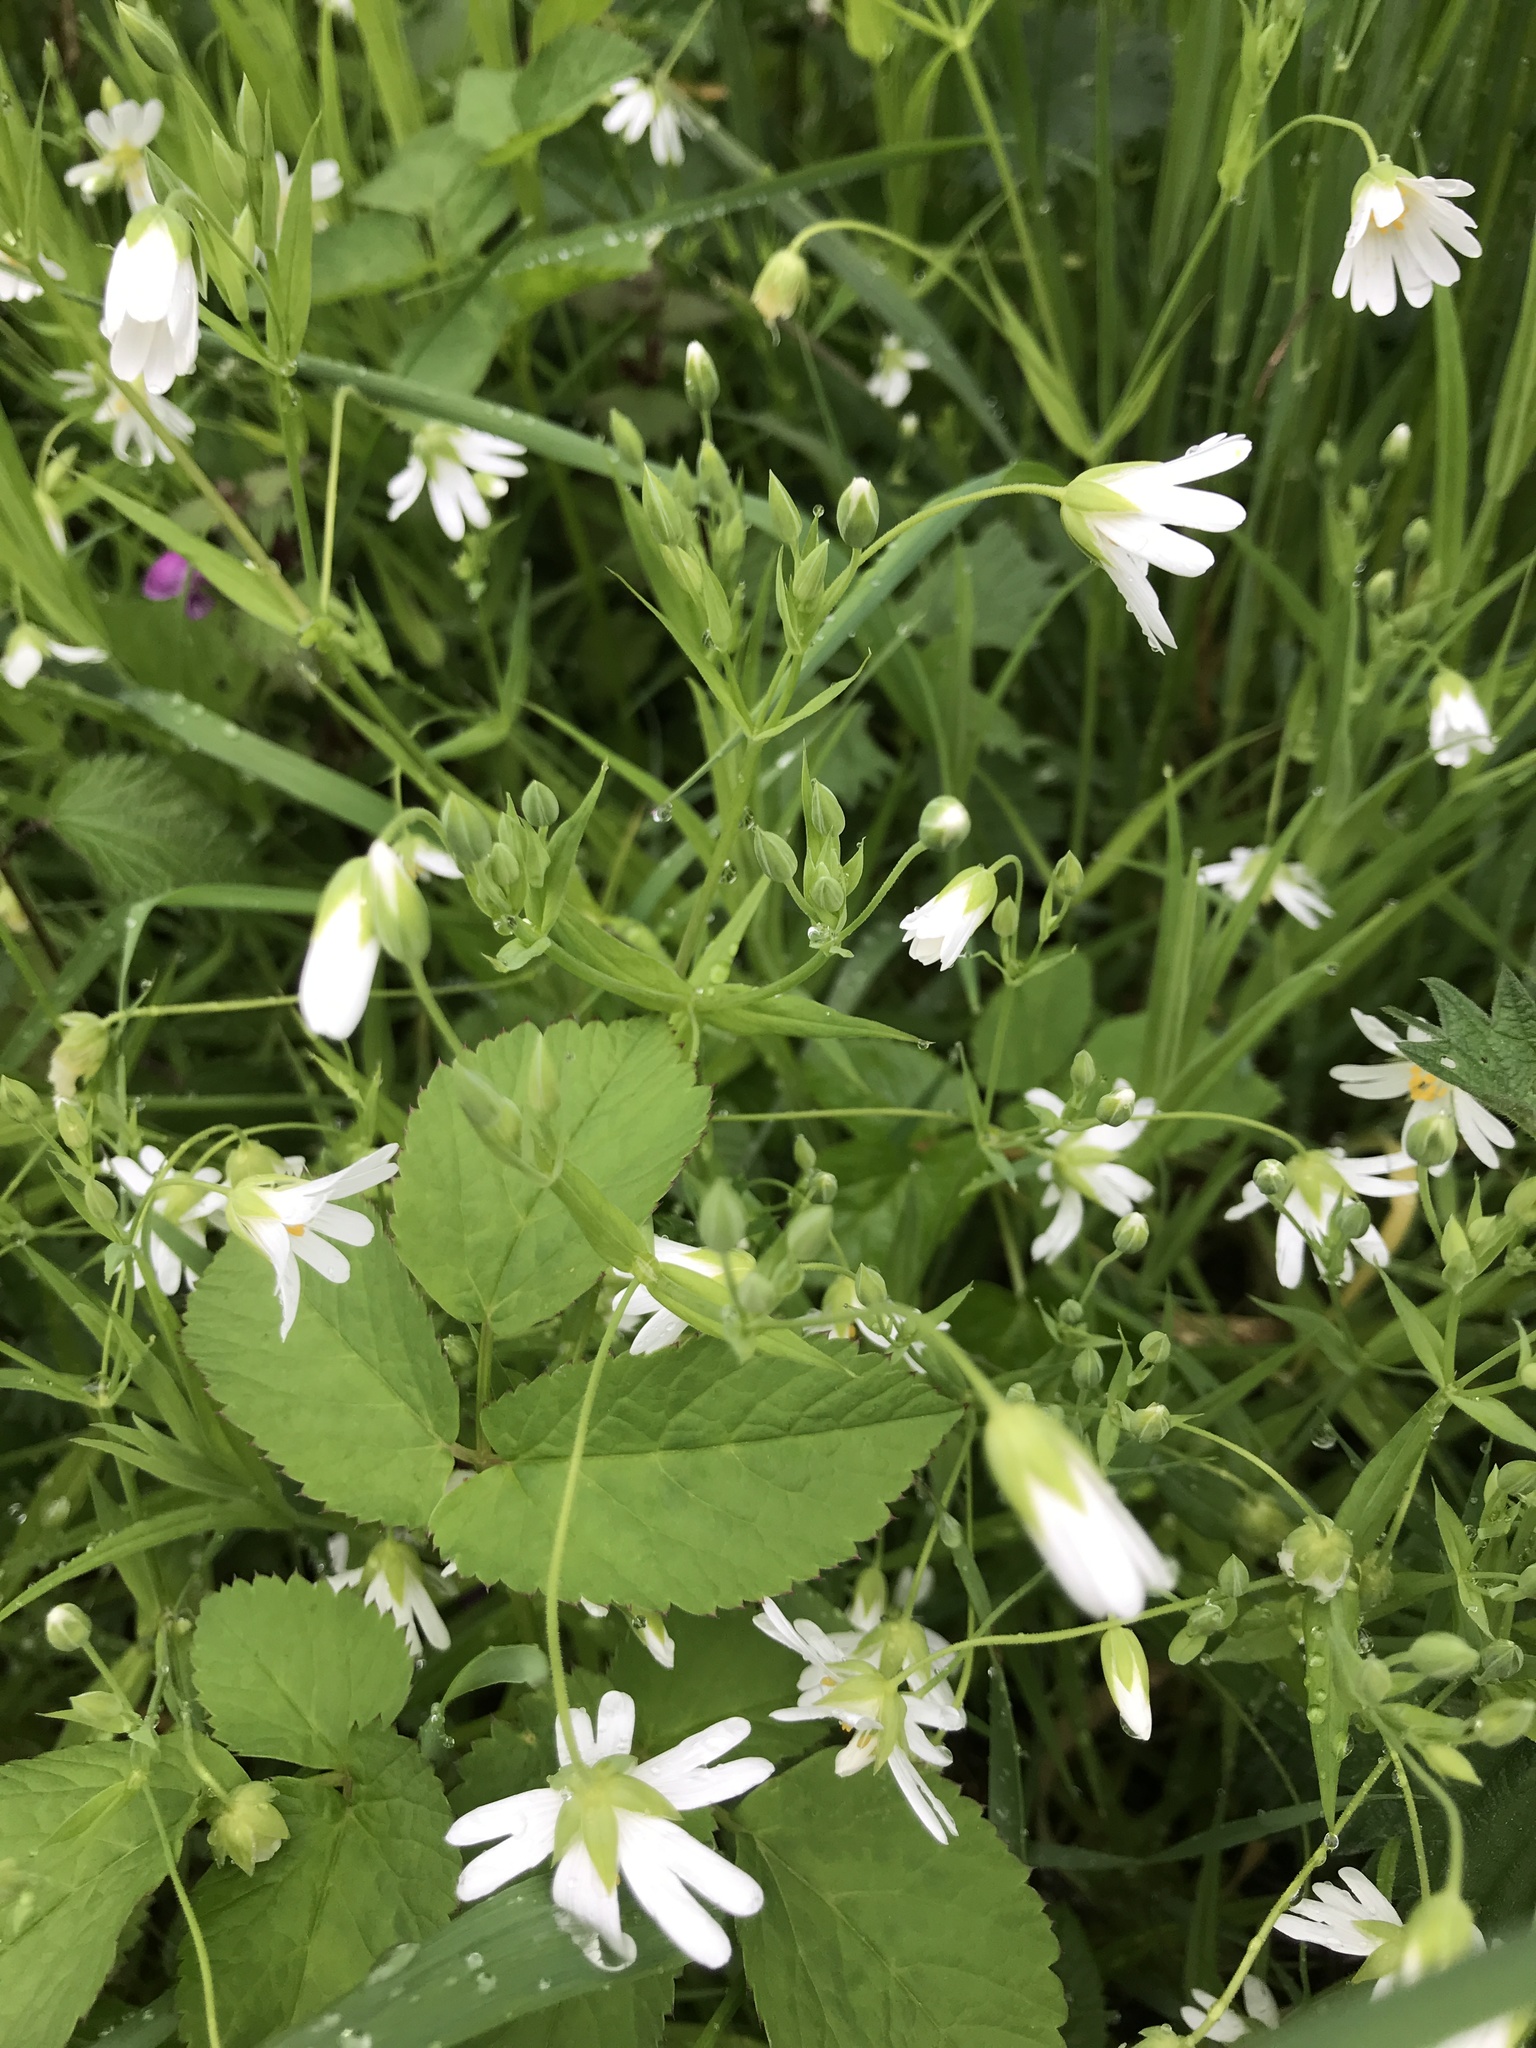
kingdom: Plantae
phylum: Tracheophyta
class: Magnoliopsida
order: Caryophyllales
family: Caryophyllaceae
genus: Rabelera
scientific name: Rabelera holostea
